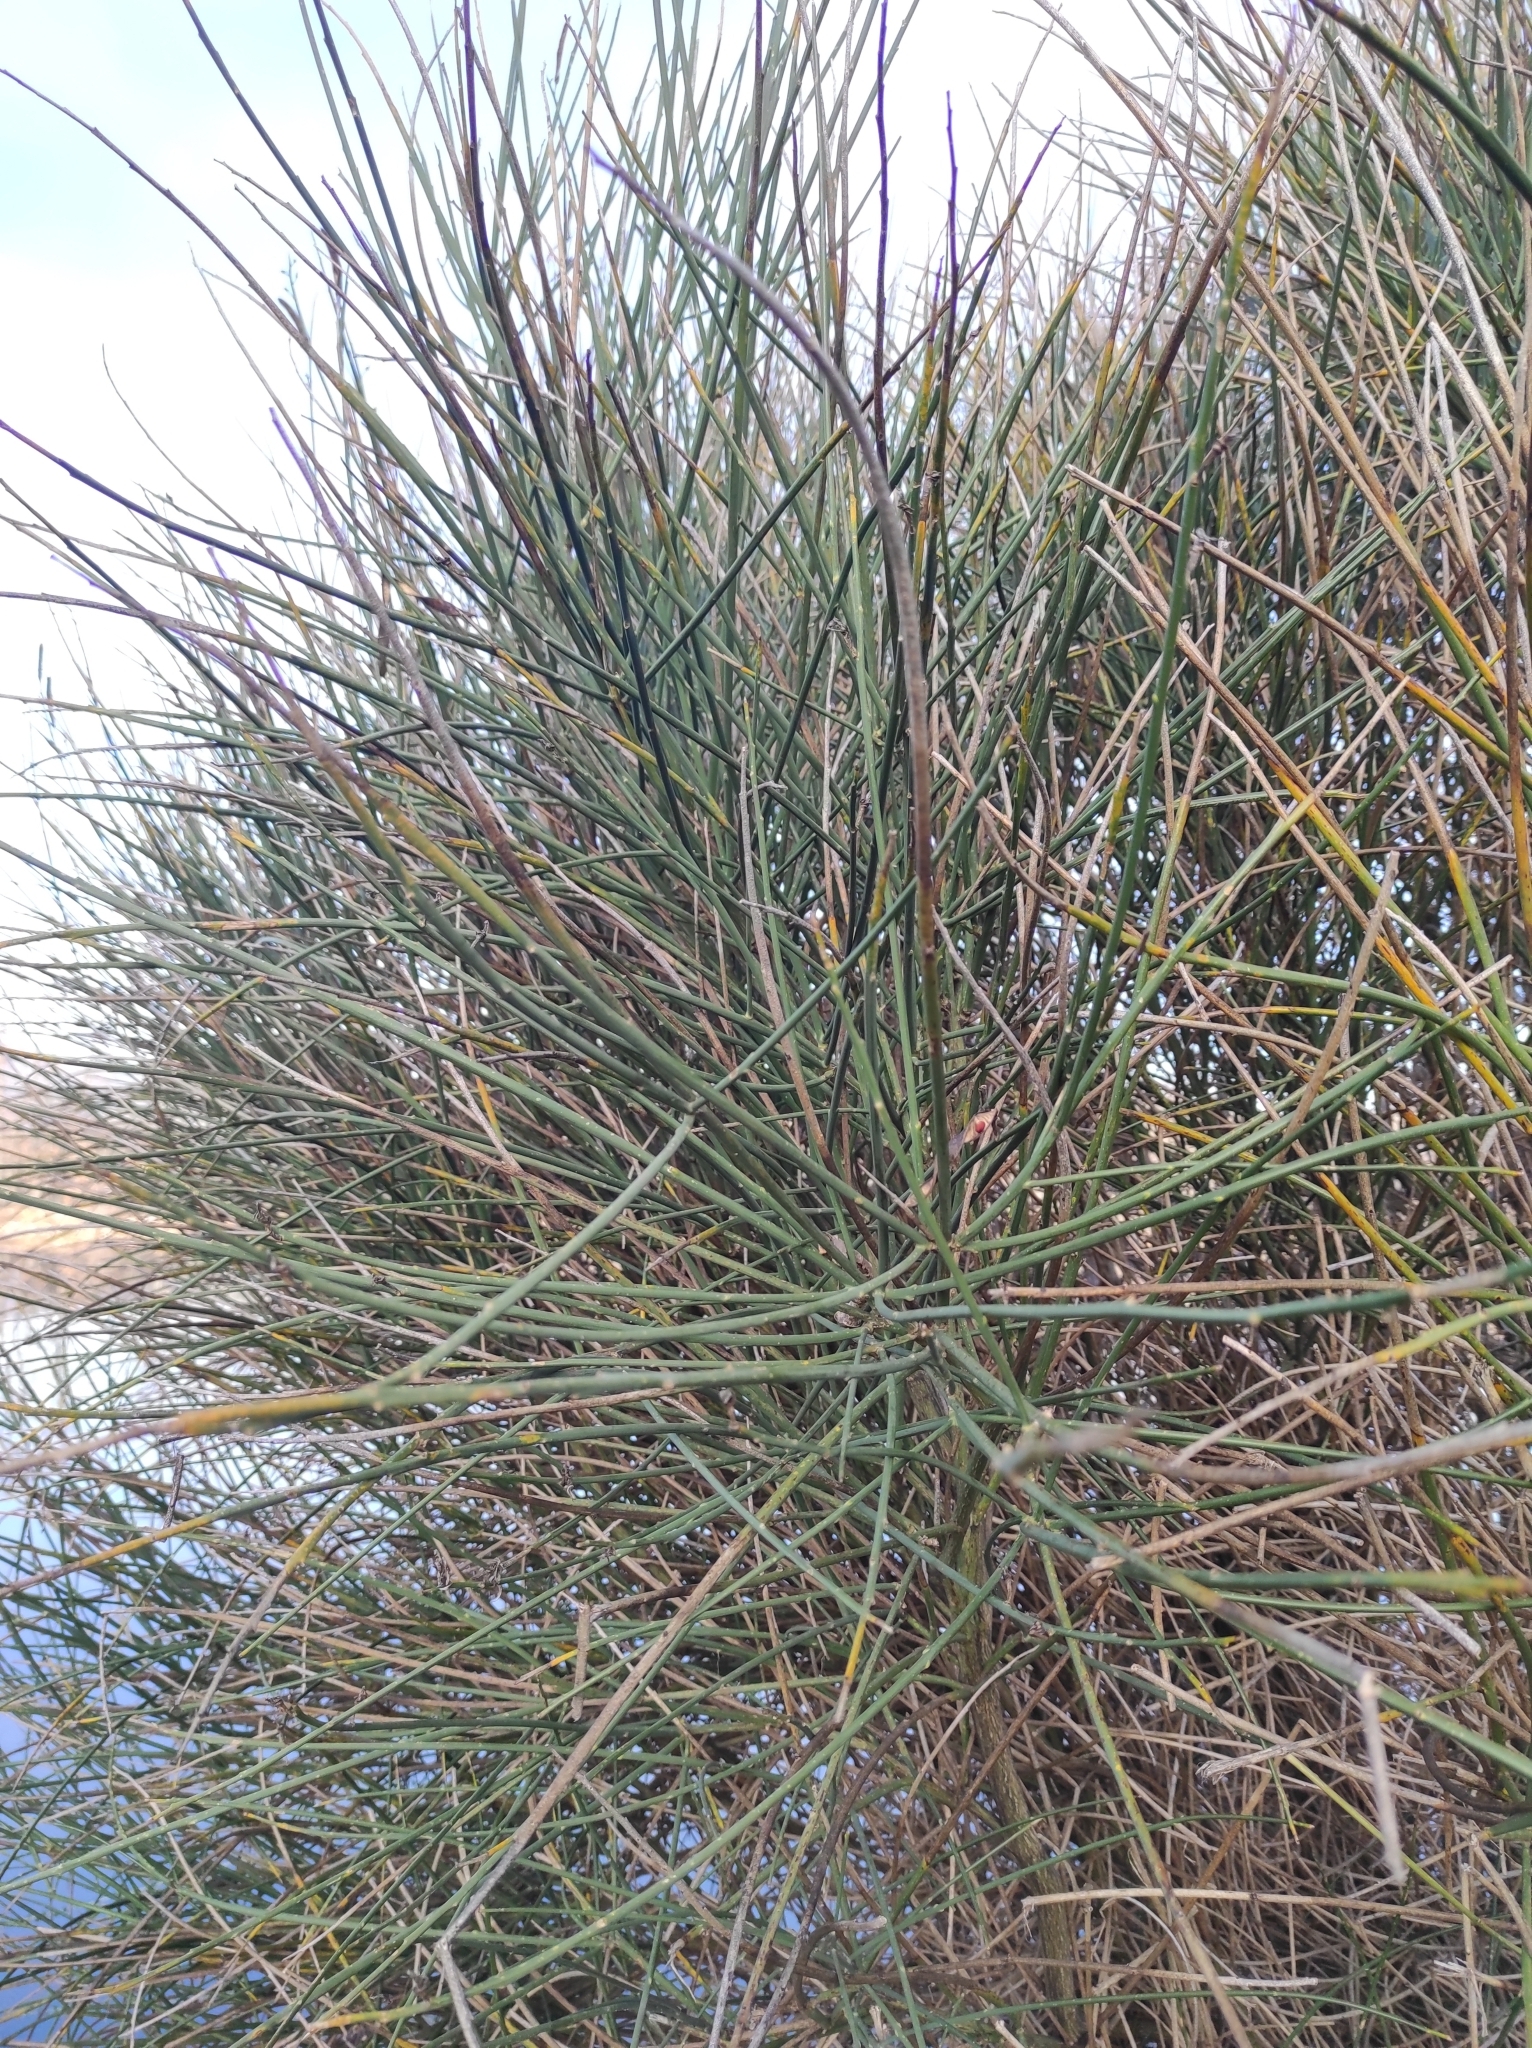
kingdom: Plantae
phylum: Tracheophyta
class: Magnoliopsida
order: Fabales
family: Fabaceae
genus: Spartium
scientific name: Spartium junceum
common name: Spanish broom
